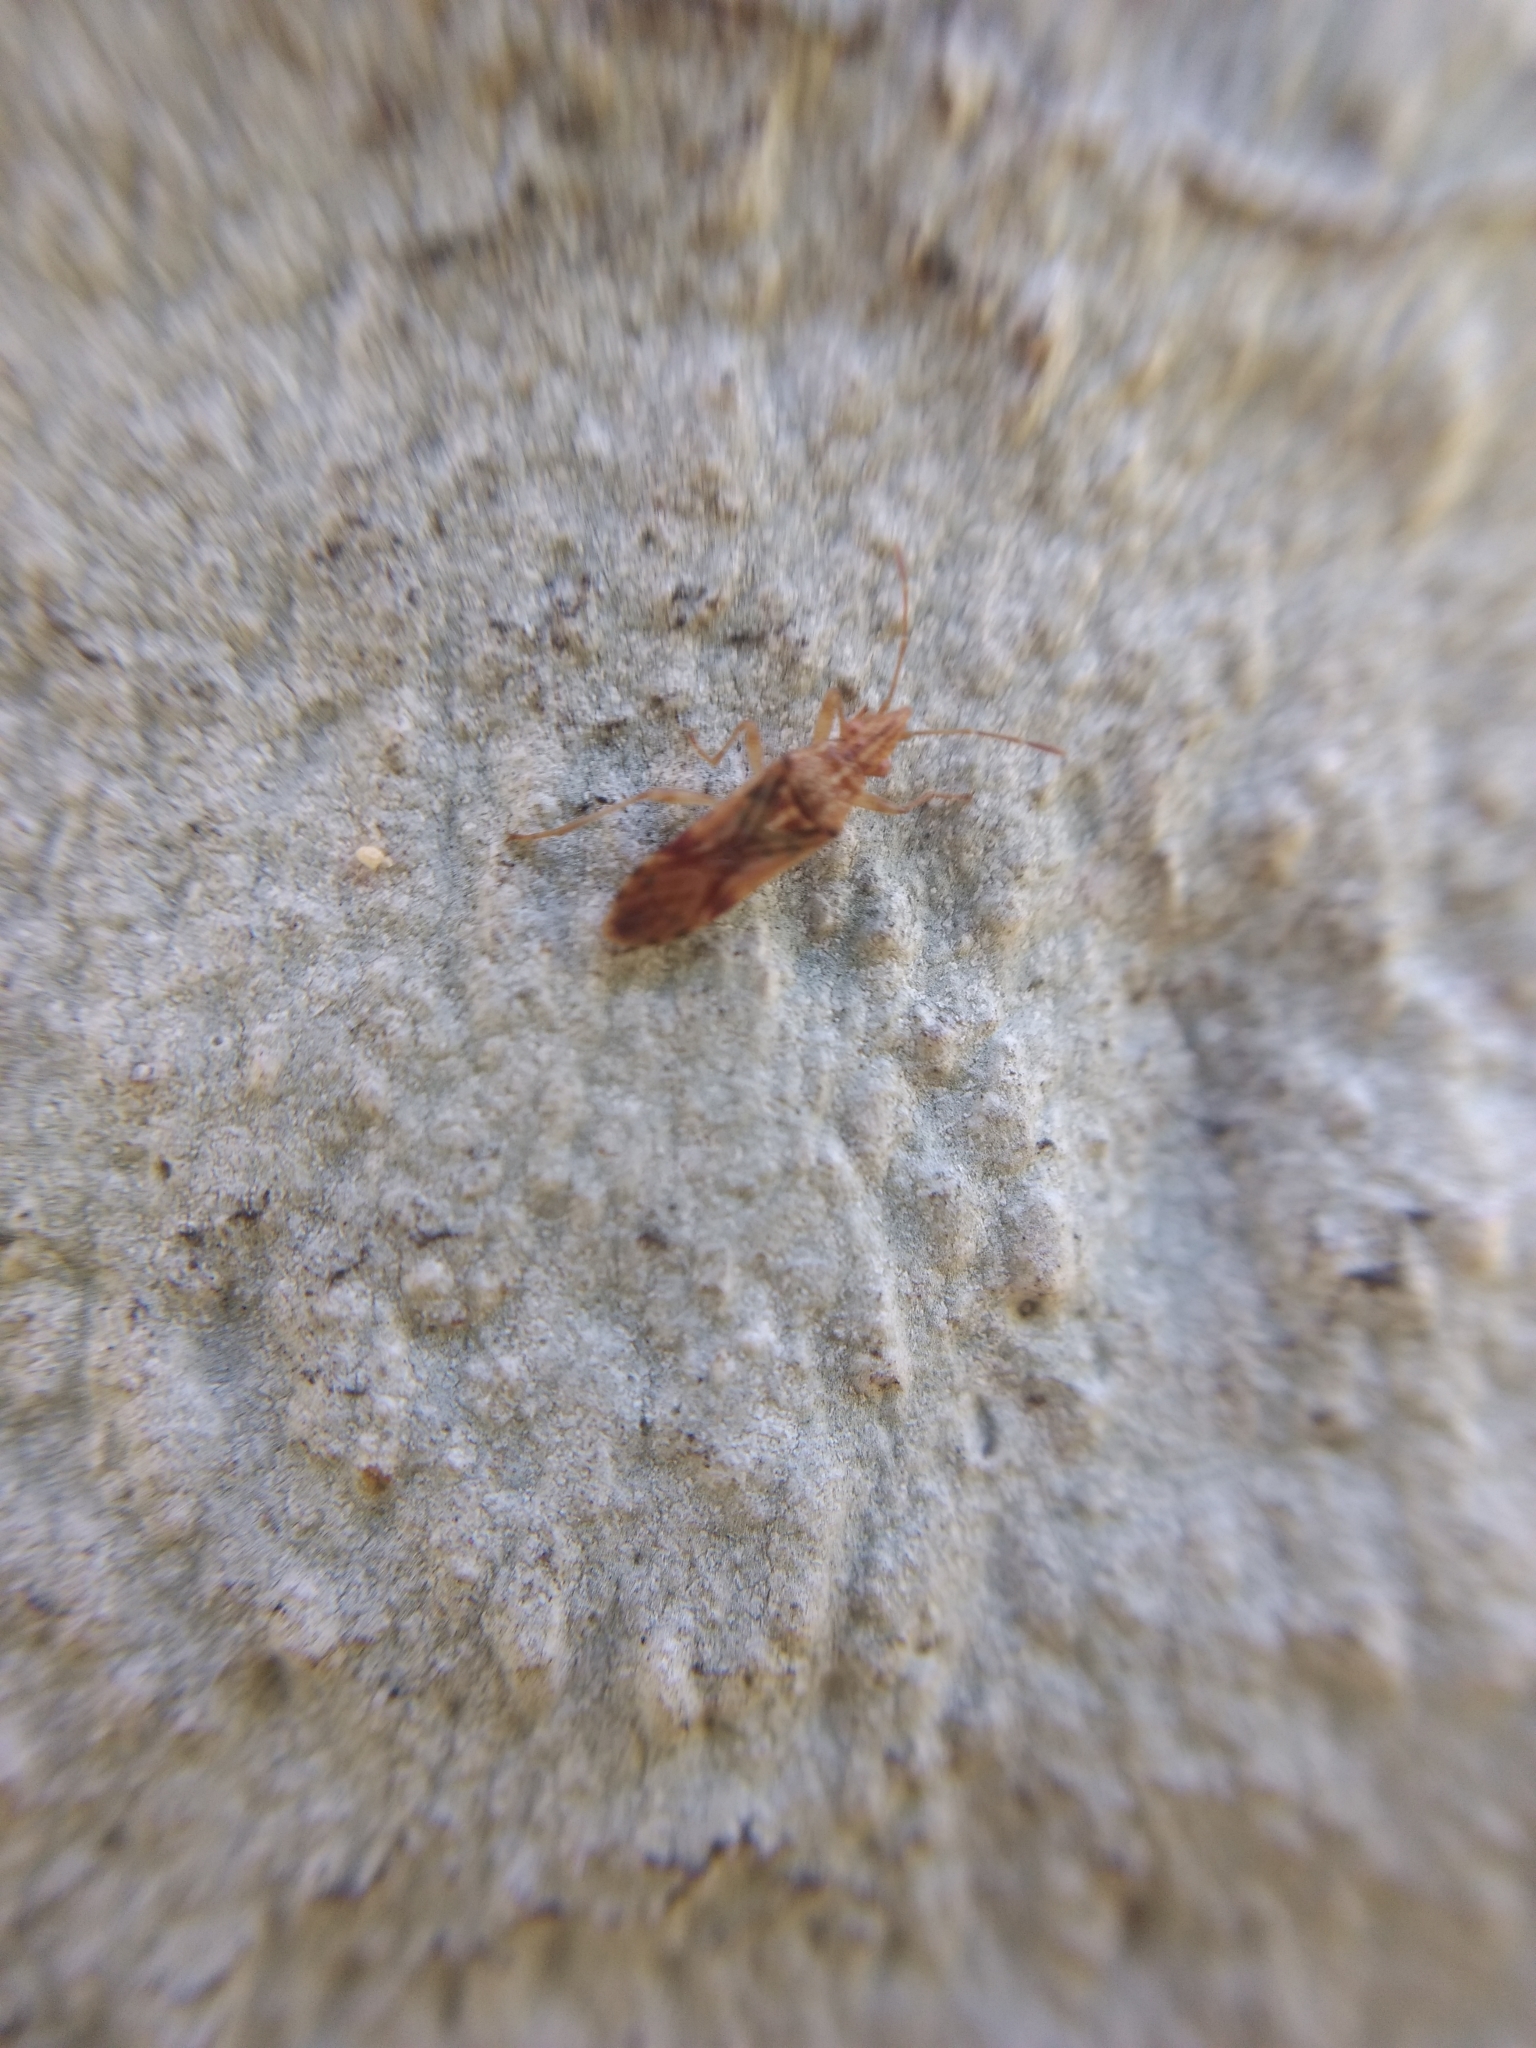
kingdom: Animalia
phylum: Arthropoda
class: Insecta
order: Hemiptera
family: Lygaeidae
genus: Belonochilus
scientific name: Belonochilus numenius
